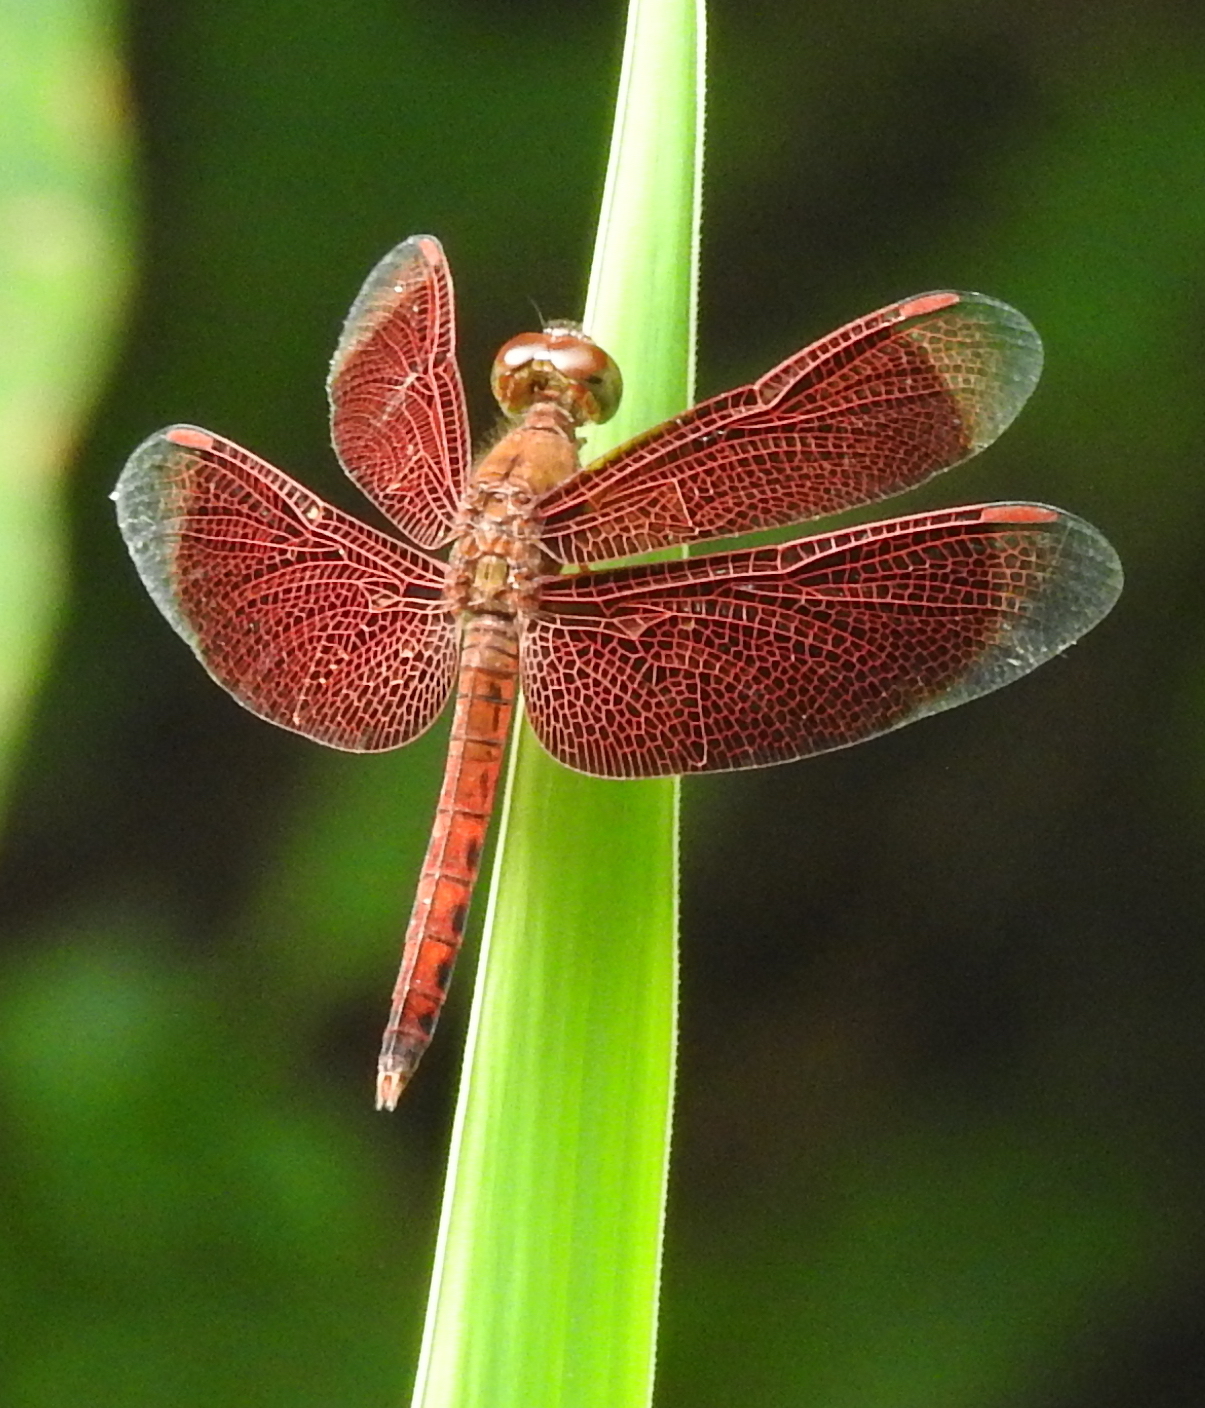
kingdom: Animalia
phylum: Arthropoda
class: Insecta
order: Odonata
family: Libellulidae
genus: Neurothemis
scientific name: Neurothemis fluctuans
